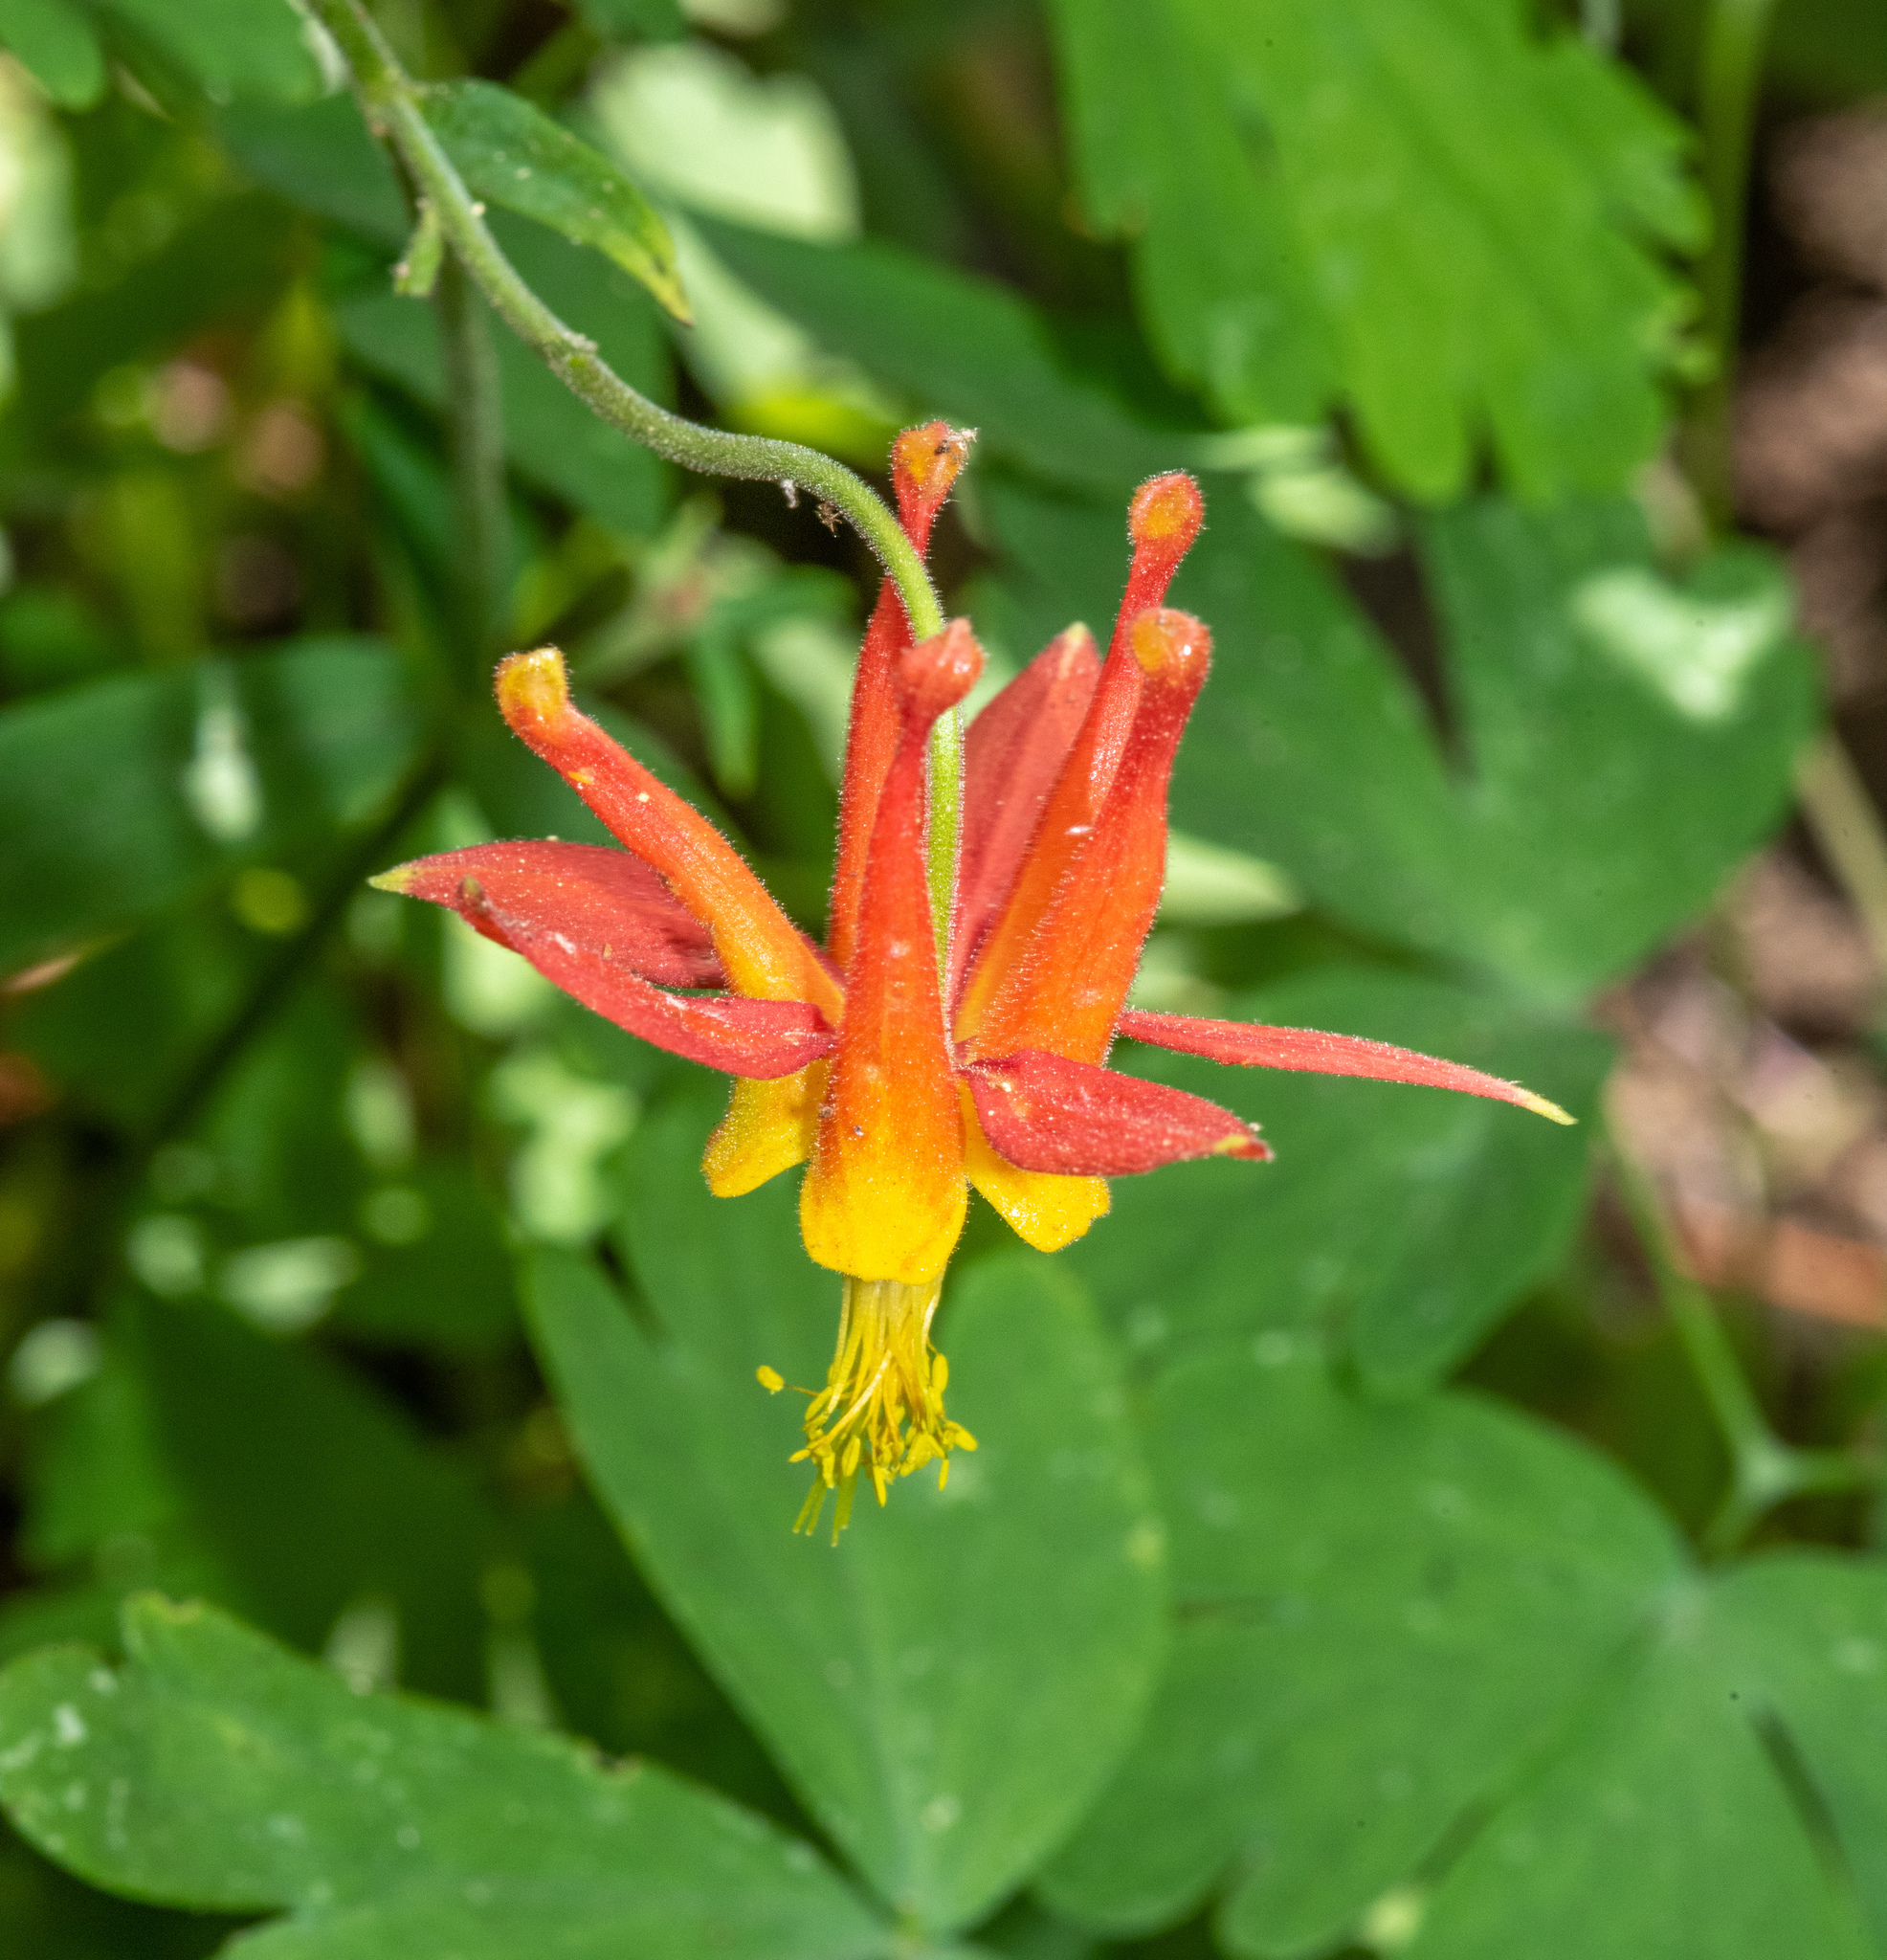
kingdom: Plantae
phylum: Tracheophyta
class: Magnoliopsida
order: Ranunculales
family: Ranunculaceae
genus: Aquilegia
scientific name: Aquilegia formosa
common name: Sitka columbine
